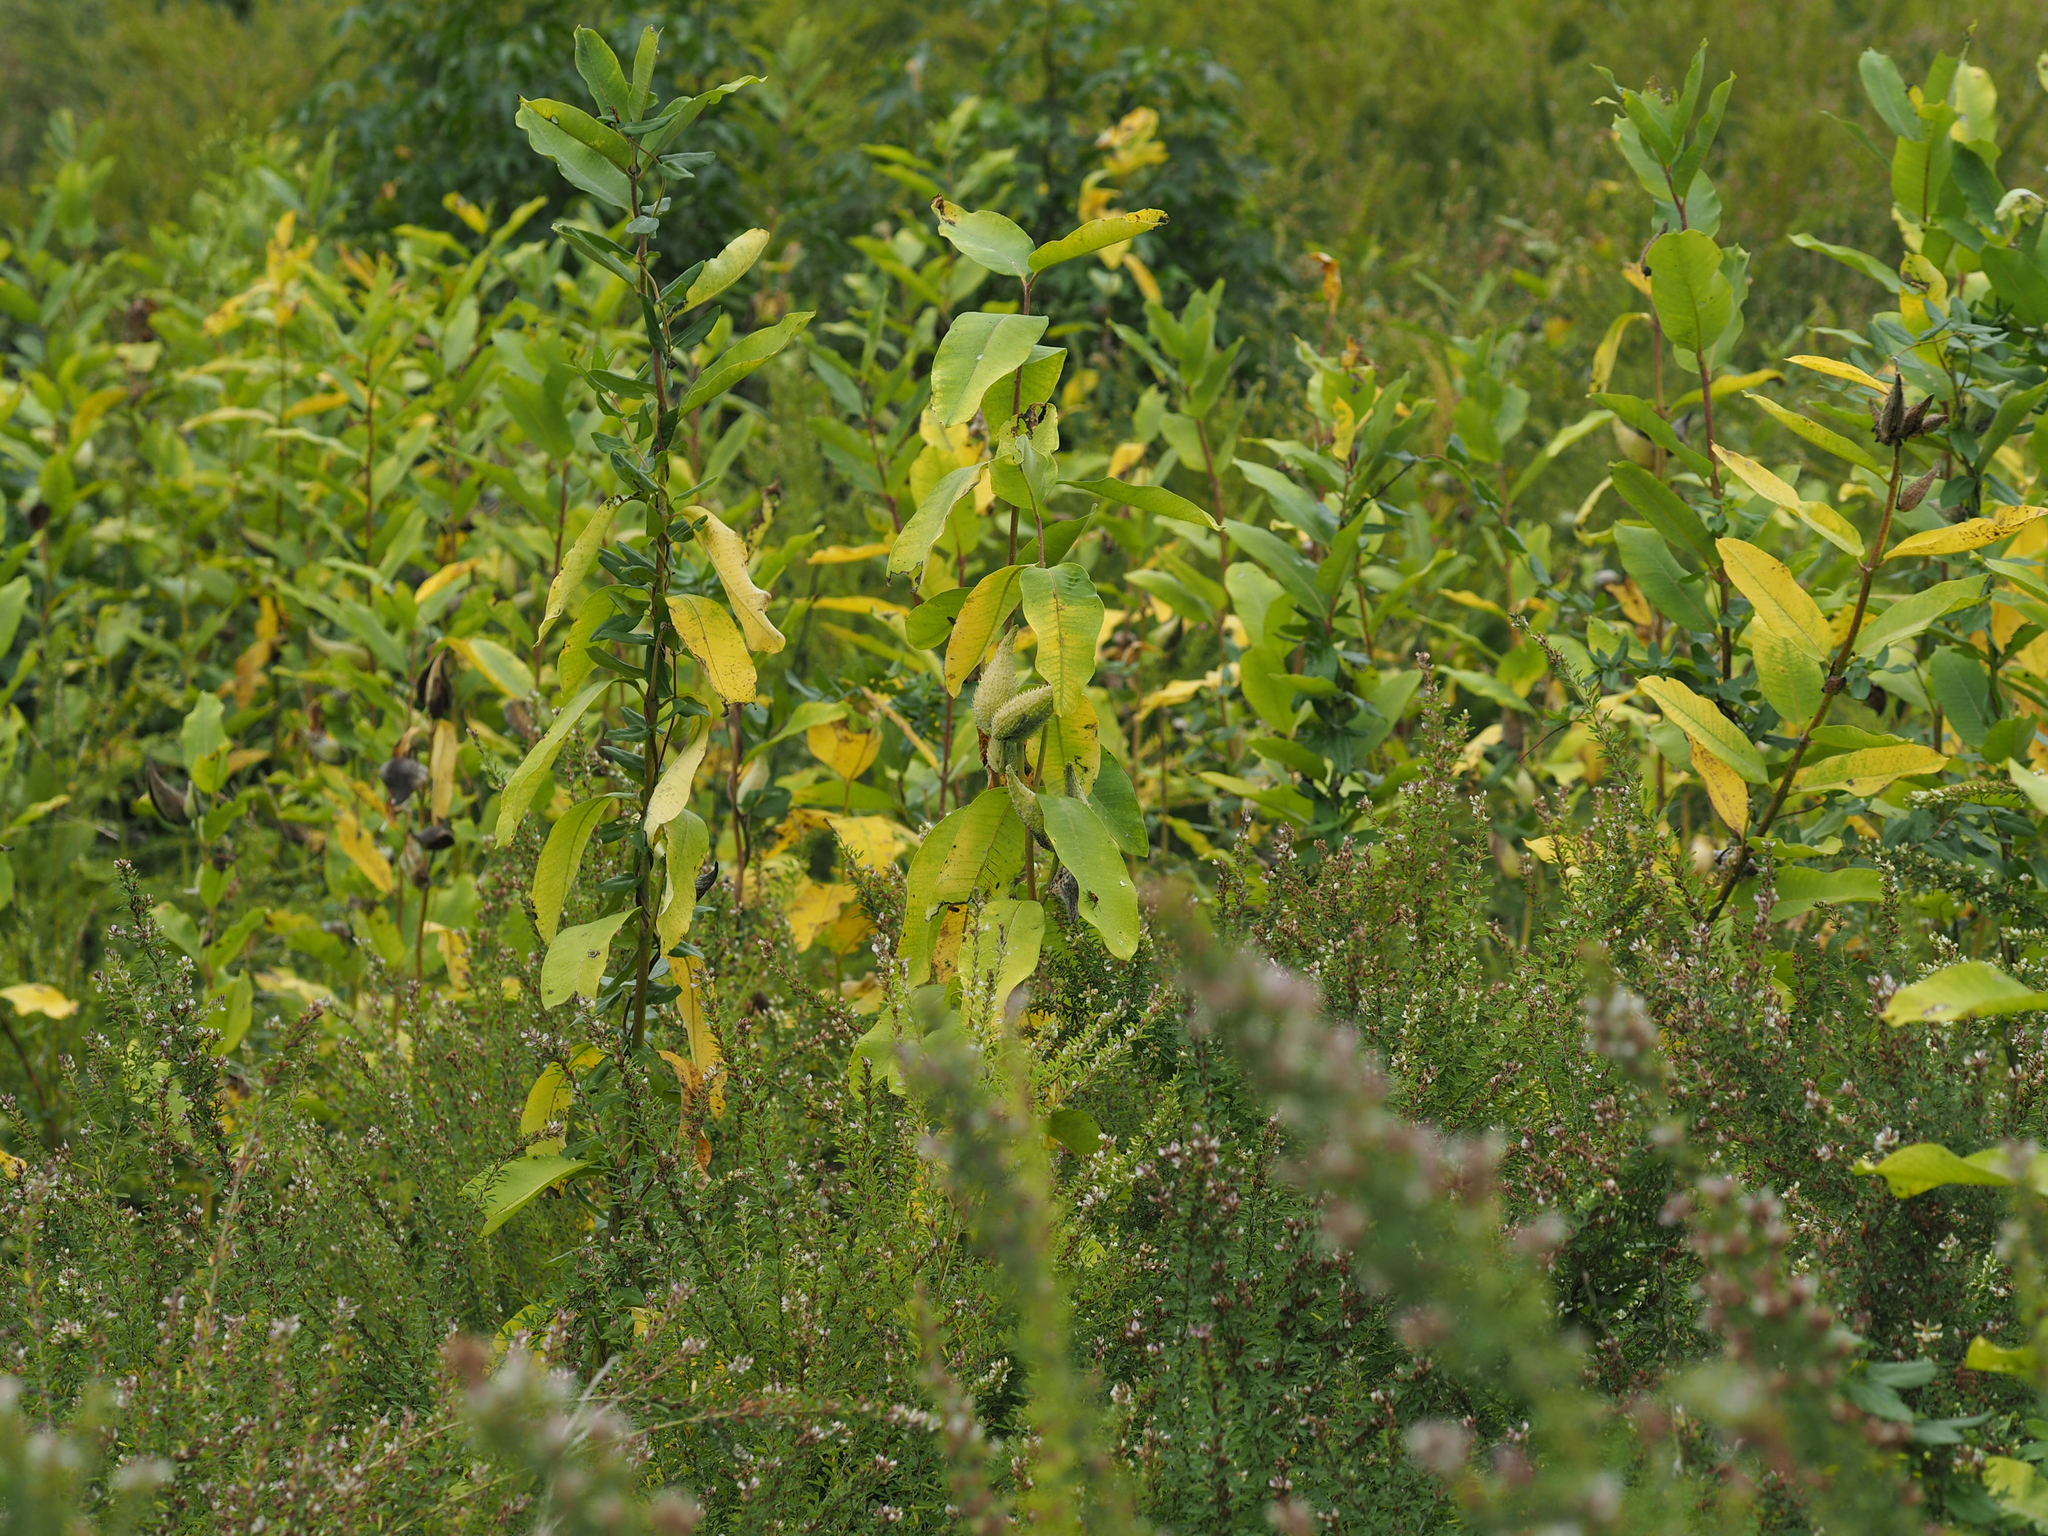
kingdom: Plantae
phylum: Tracheophyta
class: Magnoliopsida
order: Gentianales
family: Apocynaceae
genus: Asclepias
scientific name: Asclepias syriaca
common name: Common milkweed
